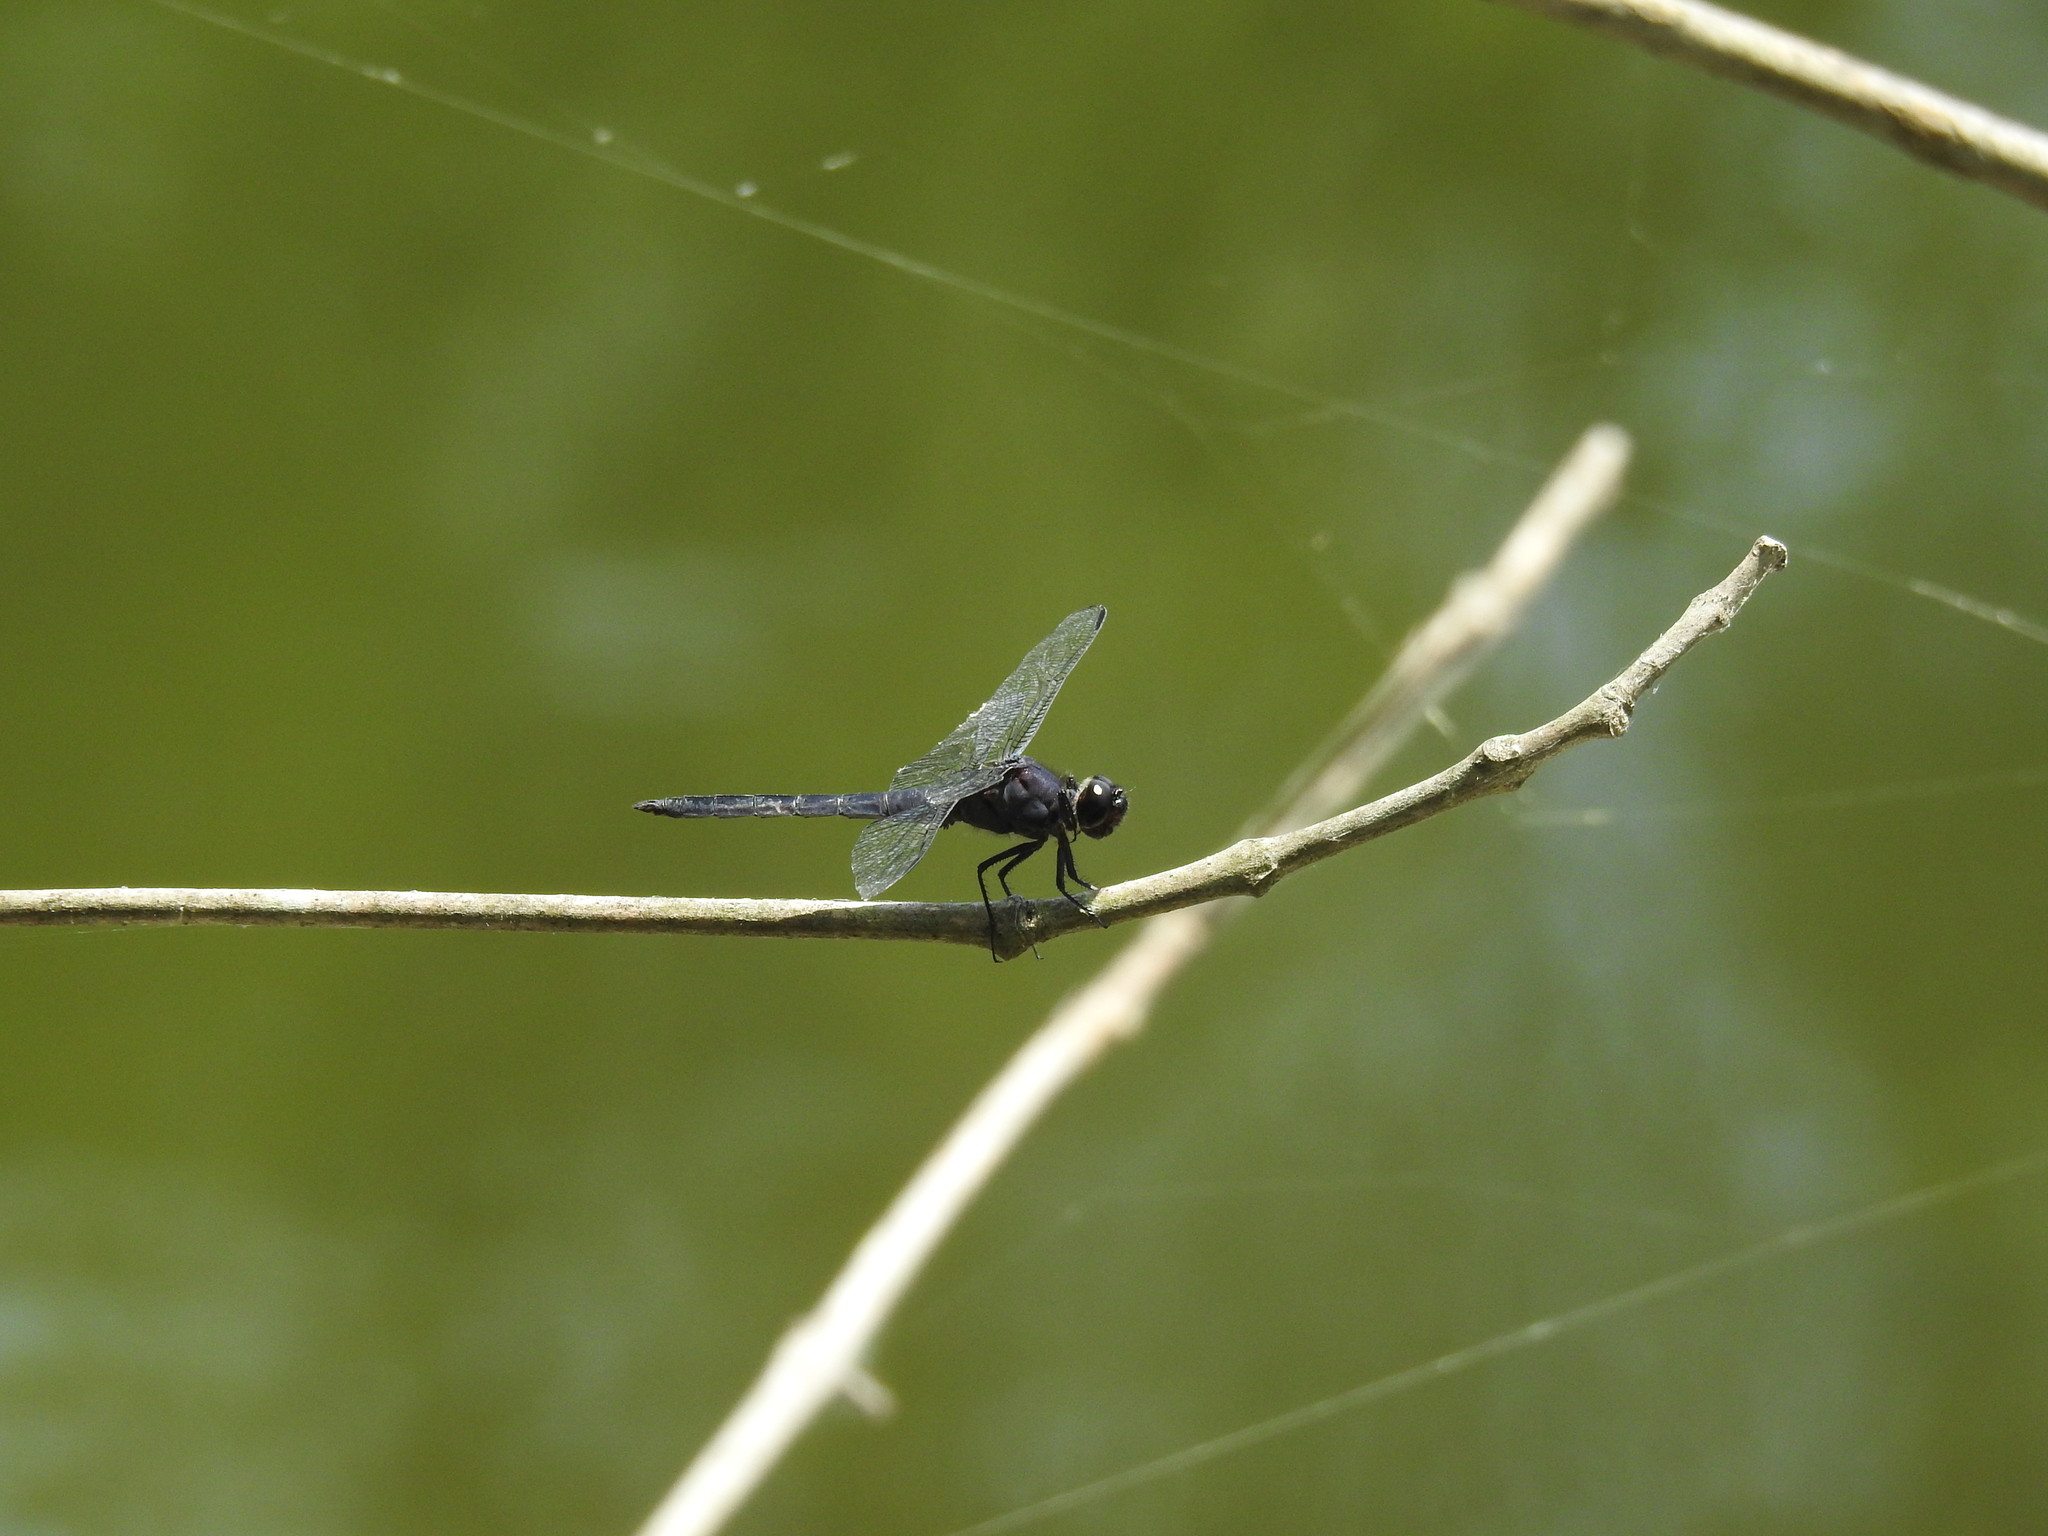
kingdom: Animalia
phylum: Arthropoda
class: Insecta
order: Odonata
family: Libellulidae
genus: Libellula
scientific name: Libellula incesta
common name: Slaty skimmer
